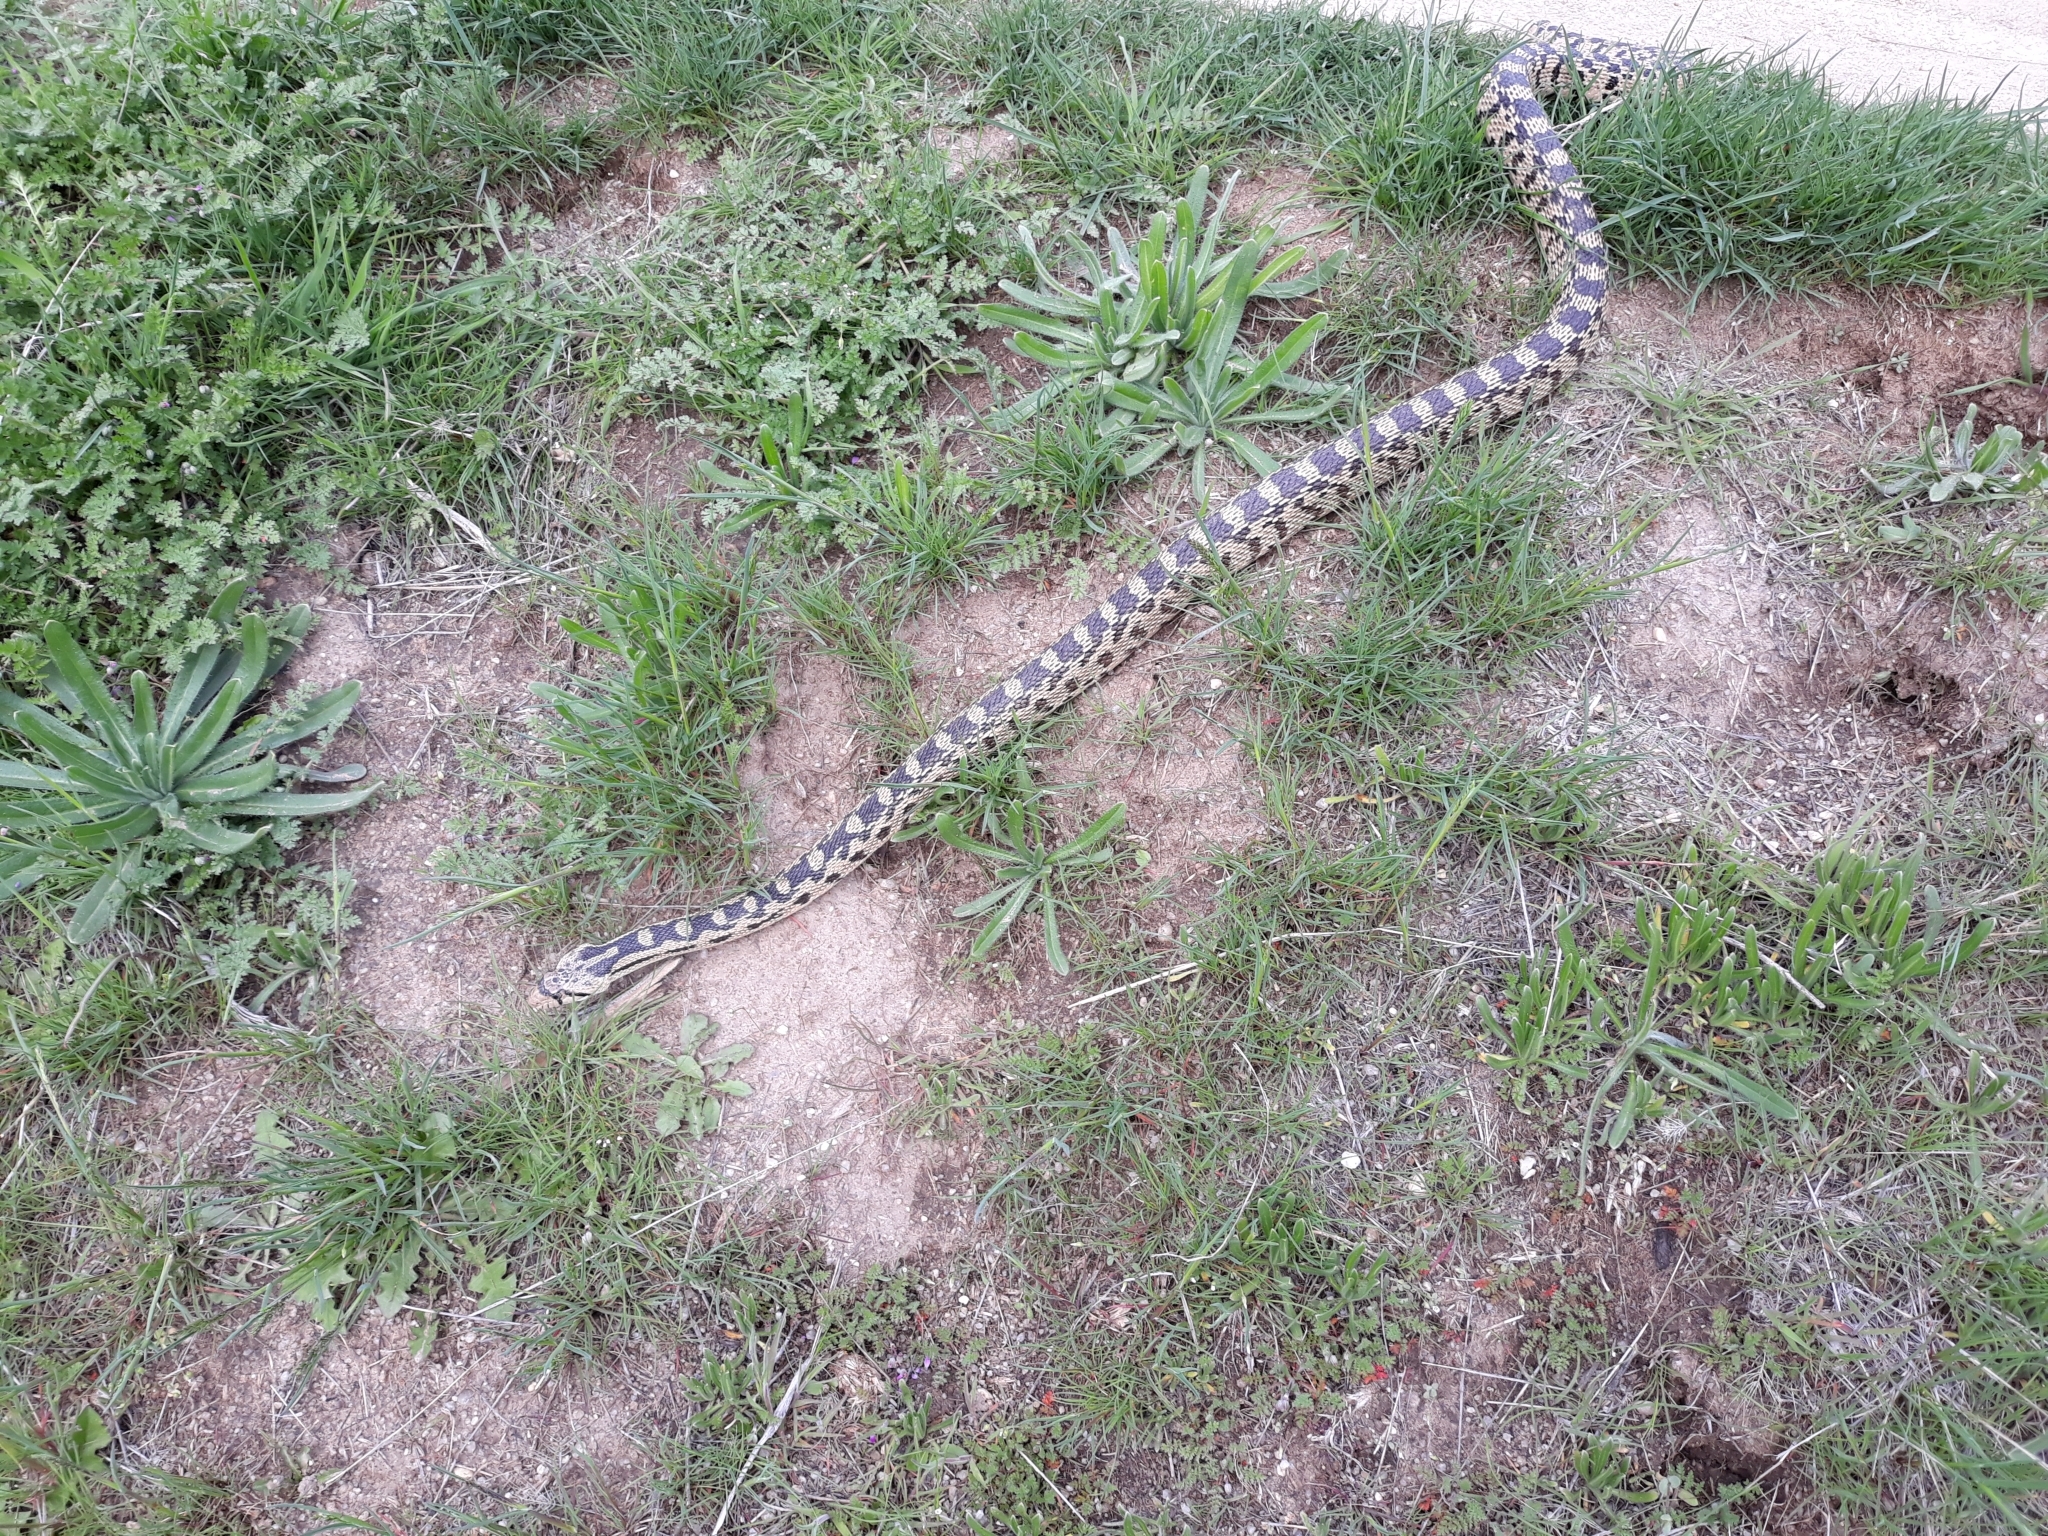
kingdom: Animalia
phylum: Chordata
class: Squamata
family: Colubridae
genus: Pituophis
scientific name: Pituophis catenifer
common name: Gopher snake
